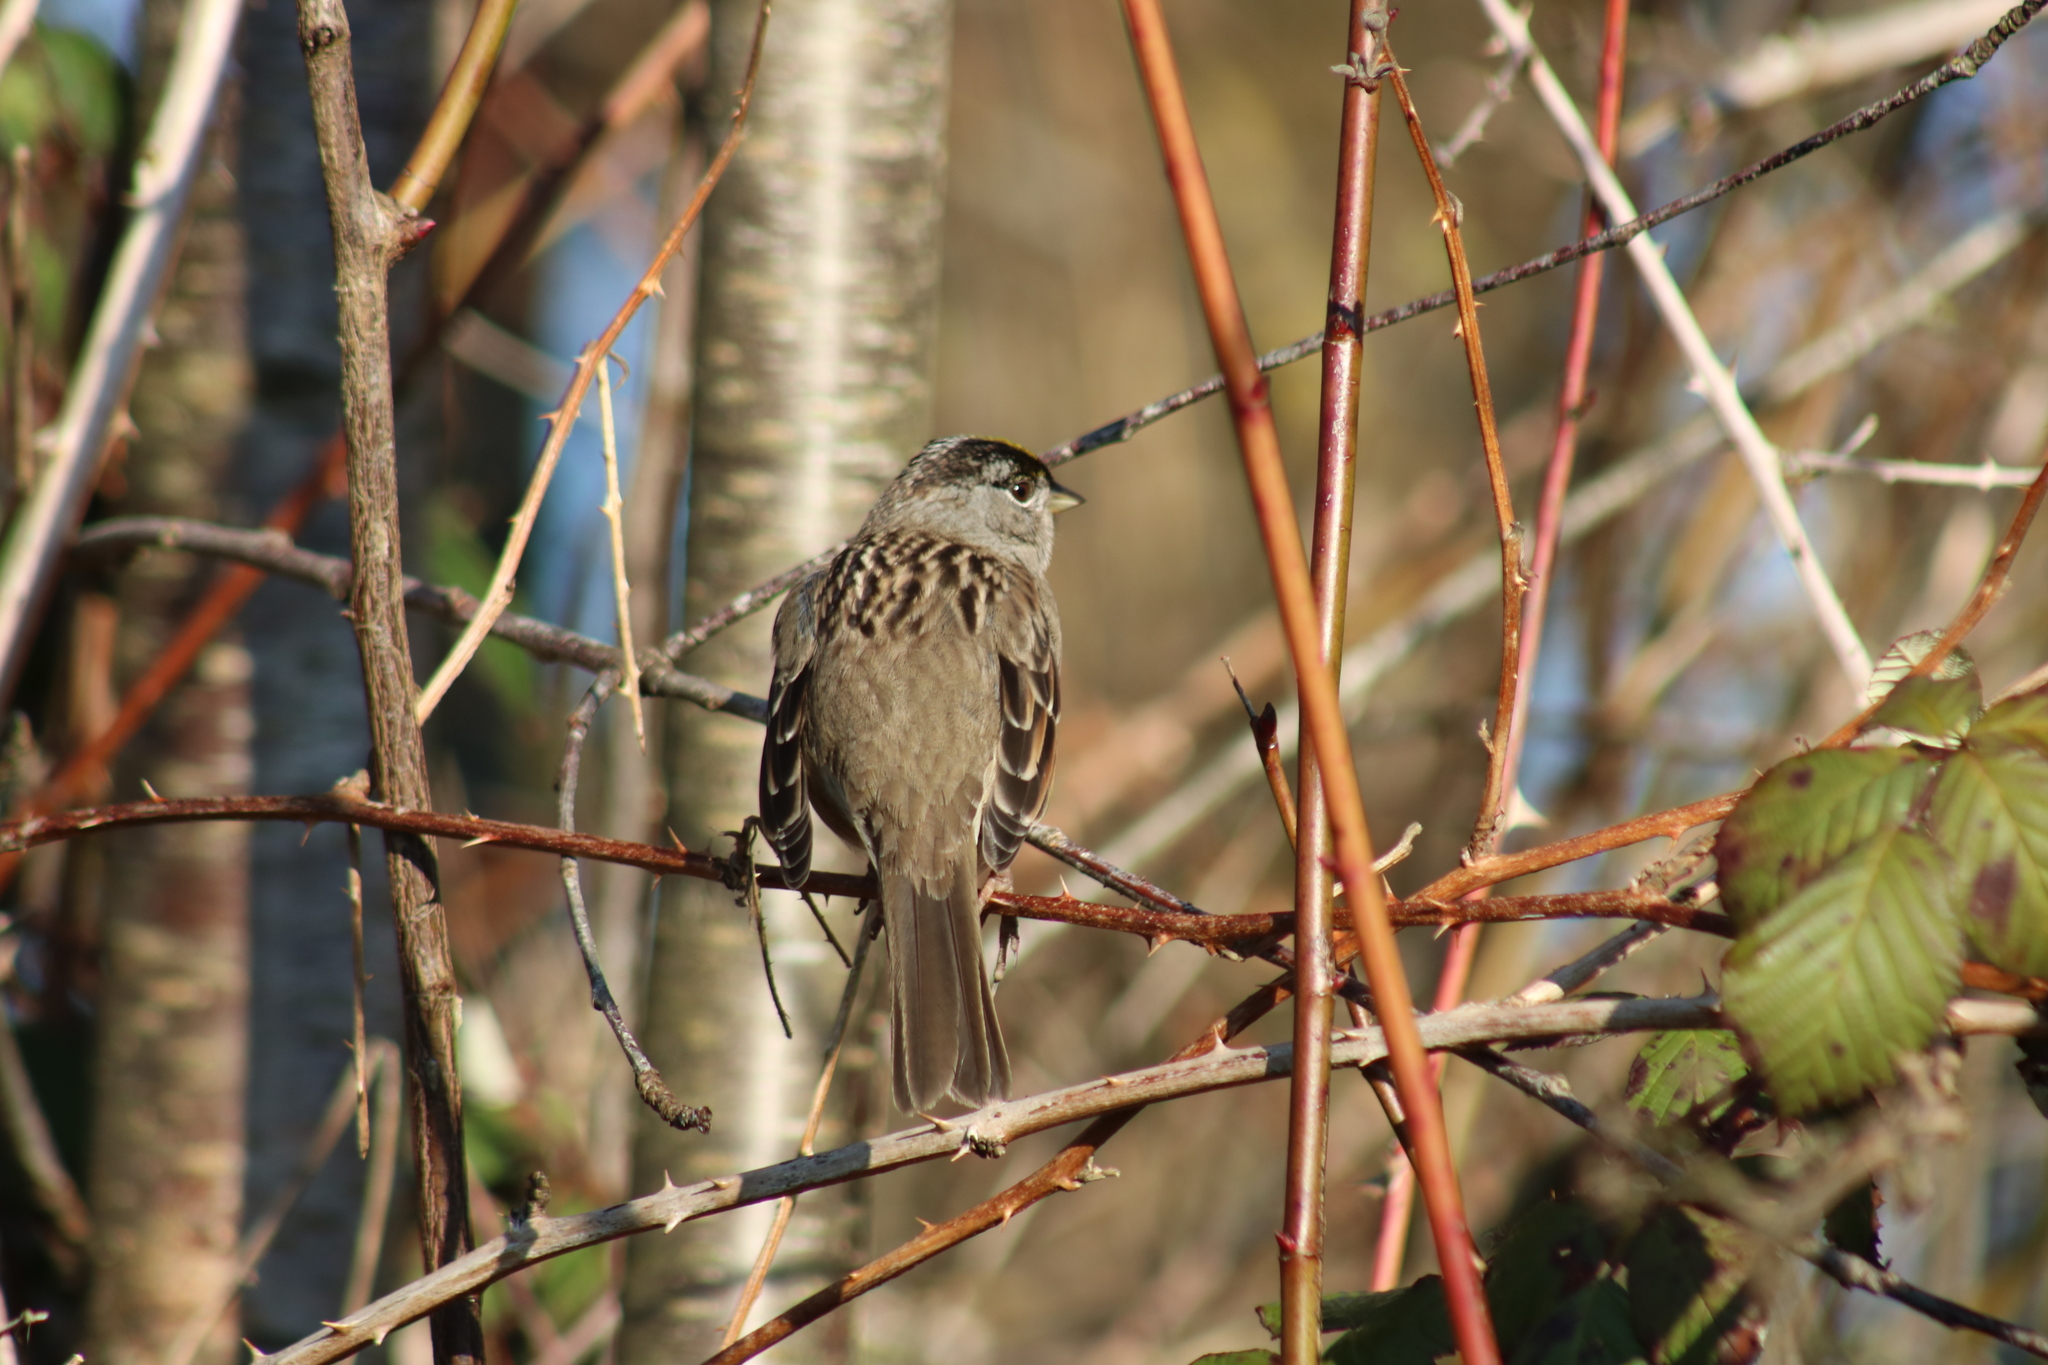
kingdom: Animalia
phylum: Chordata
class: Aves
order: Passeriformes
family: Passerellidae
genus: Zonotrichia
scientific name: Zonotrichia atricapilla
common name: Golden-crowned sparrow
